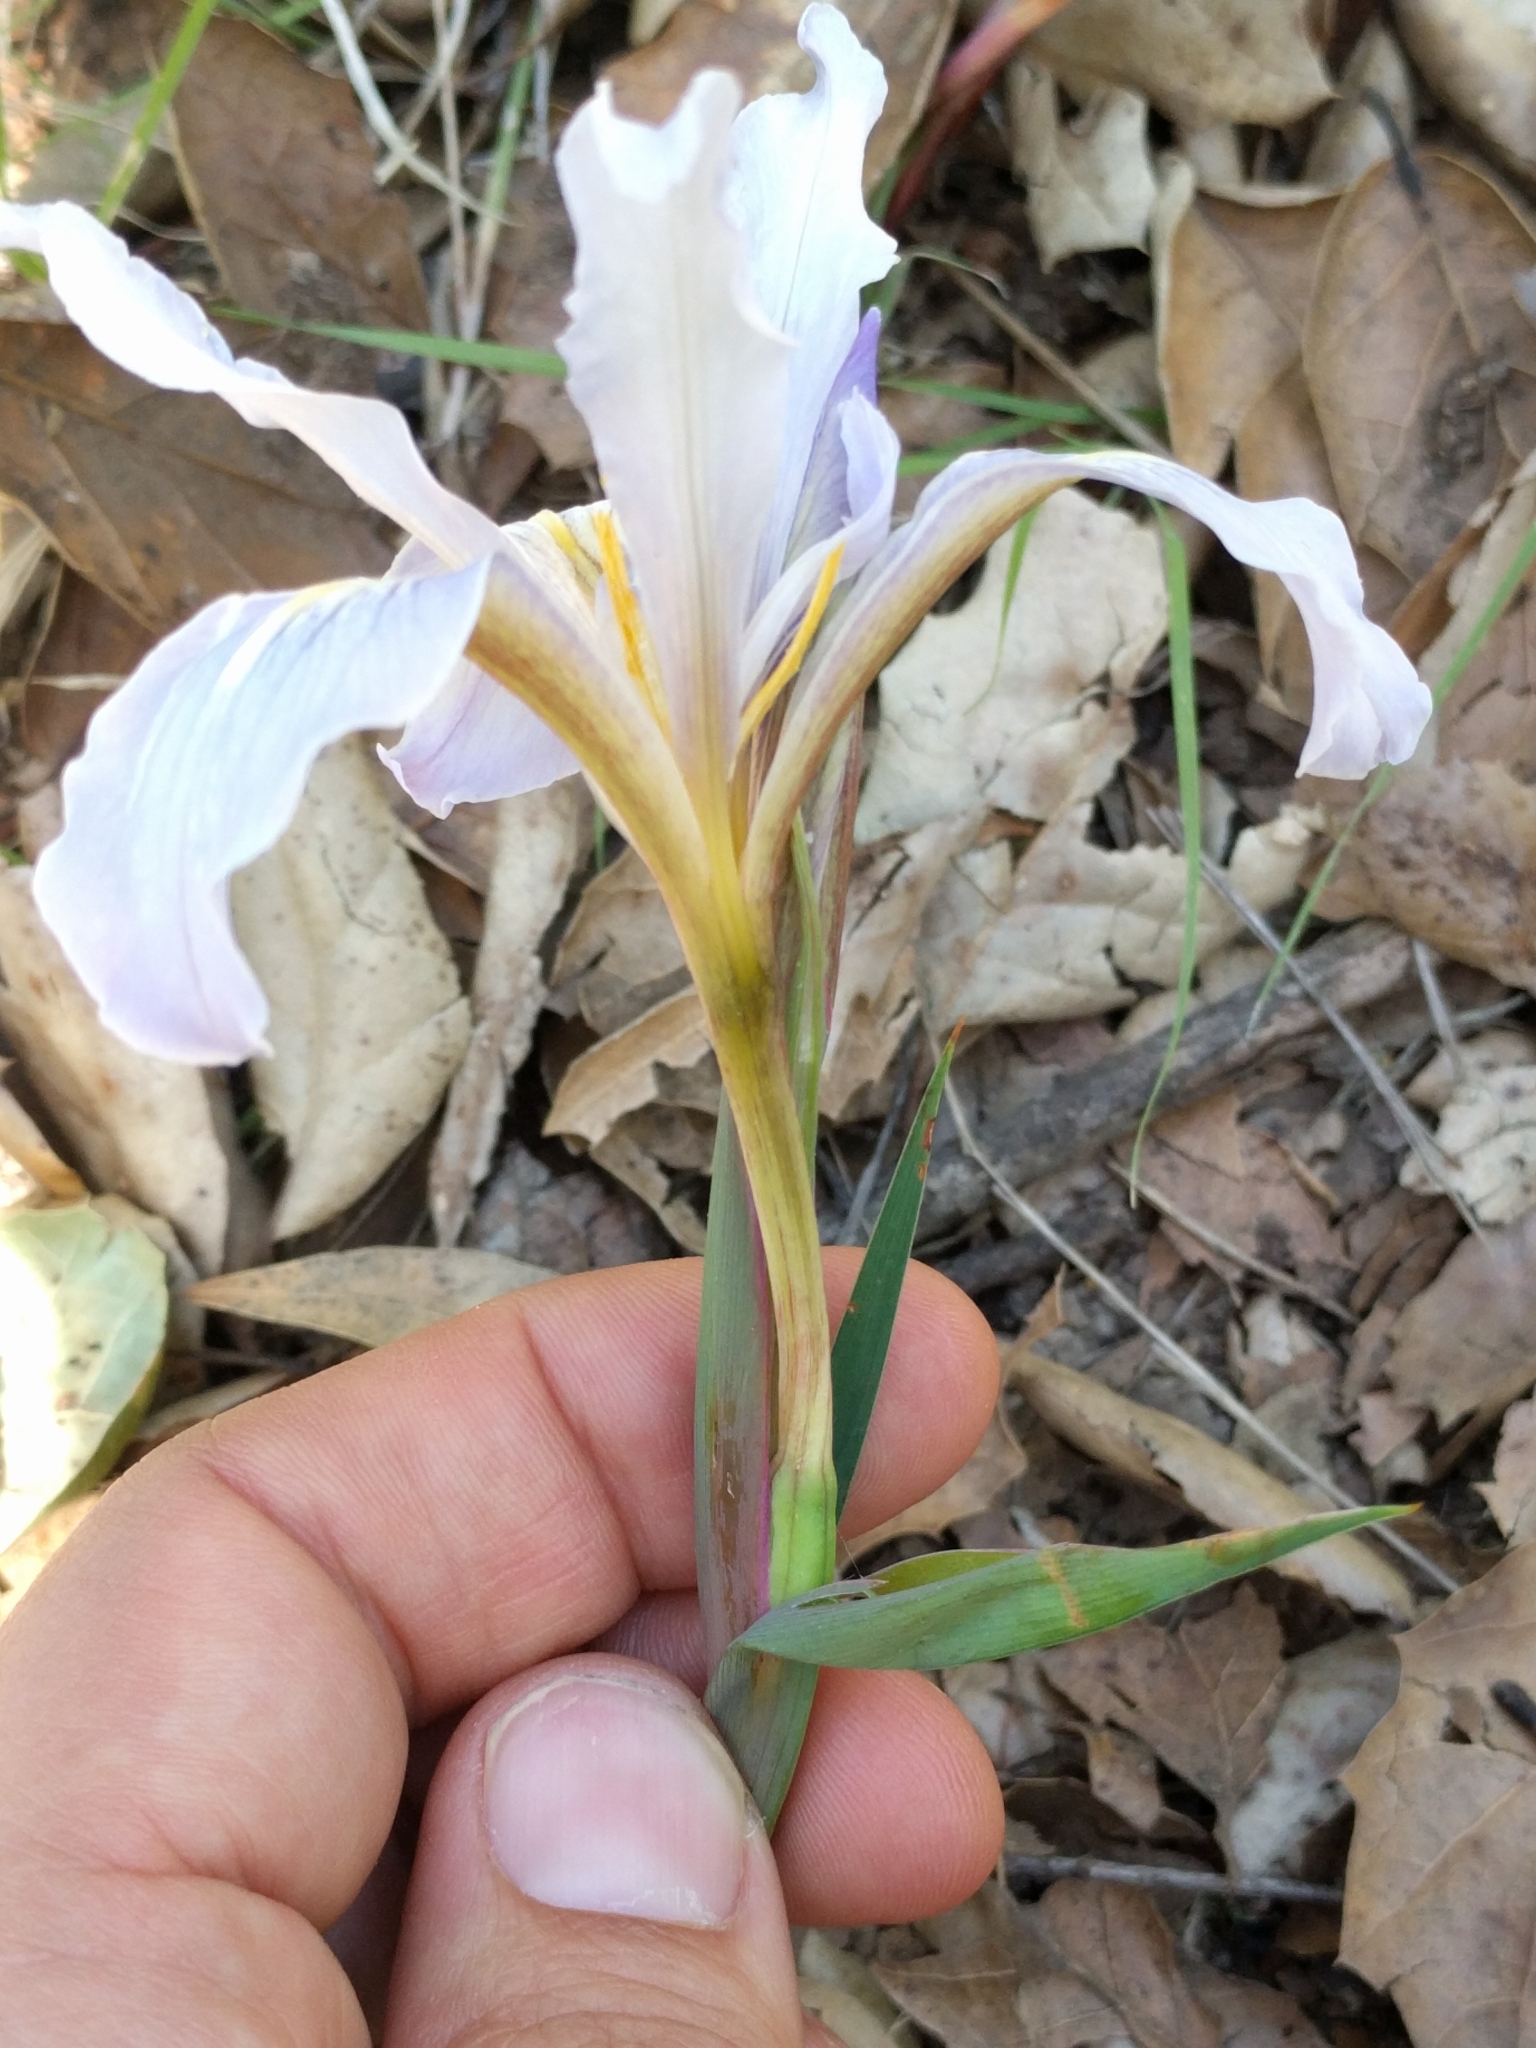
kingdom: Plantae
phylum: Tracheophyta
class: Liliopsida
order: Asparagales
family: Iridaceae
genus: Iris
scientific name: Iris fernaldii
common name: Fernald's iris
